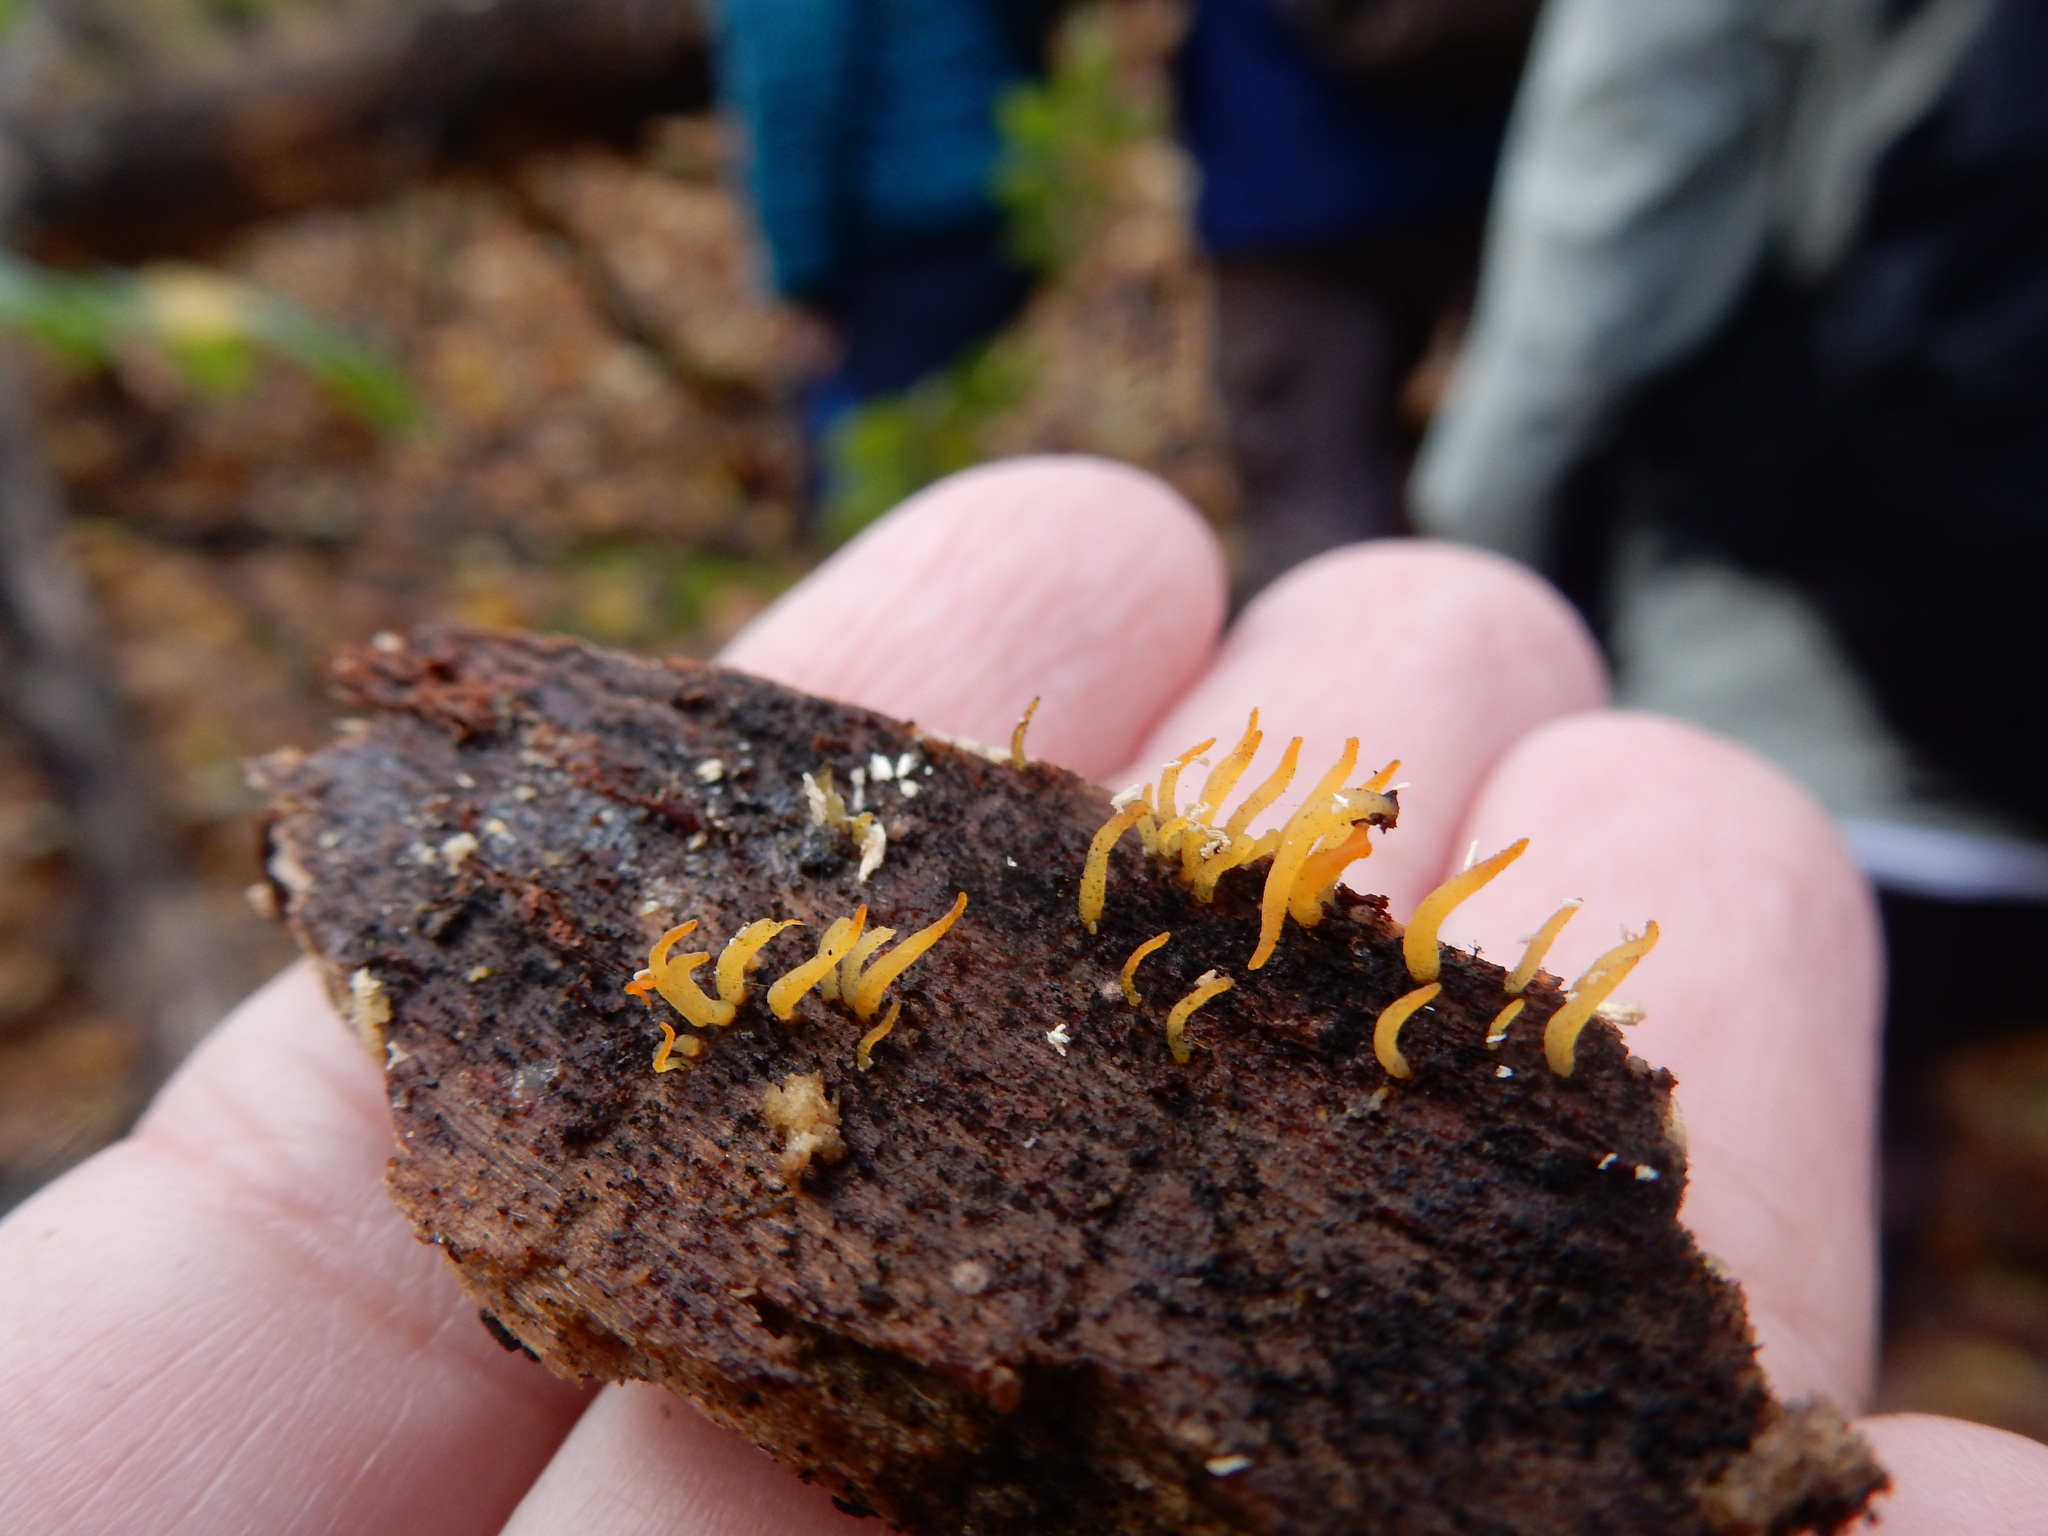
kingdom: Fungi
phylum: Basidiomycota
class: Dacrymycetes
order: Dacrymycetales
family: Dacrymycetaceae
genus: Calocera
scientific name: Calocera cornea
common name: Small stagshorn
